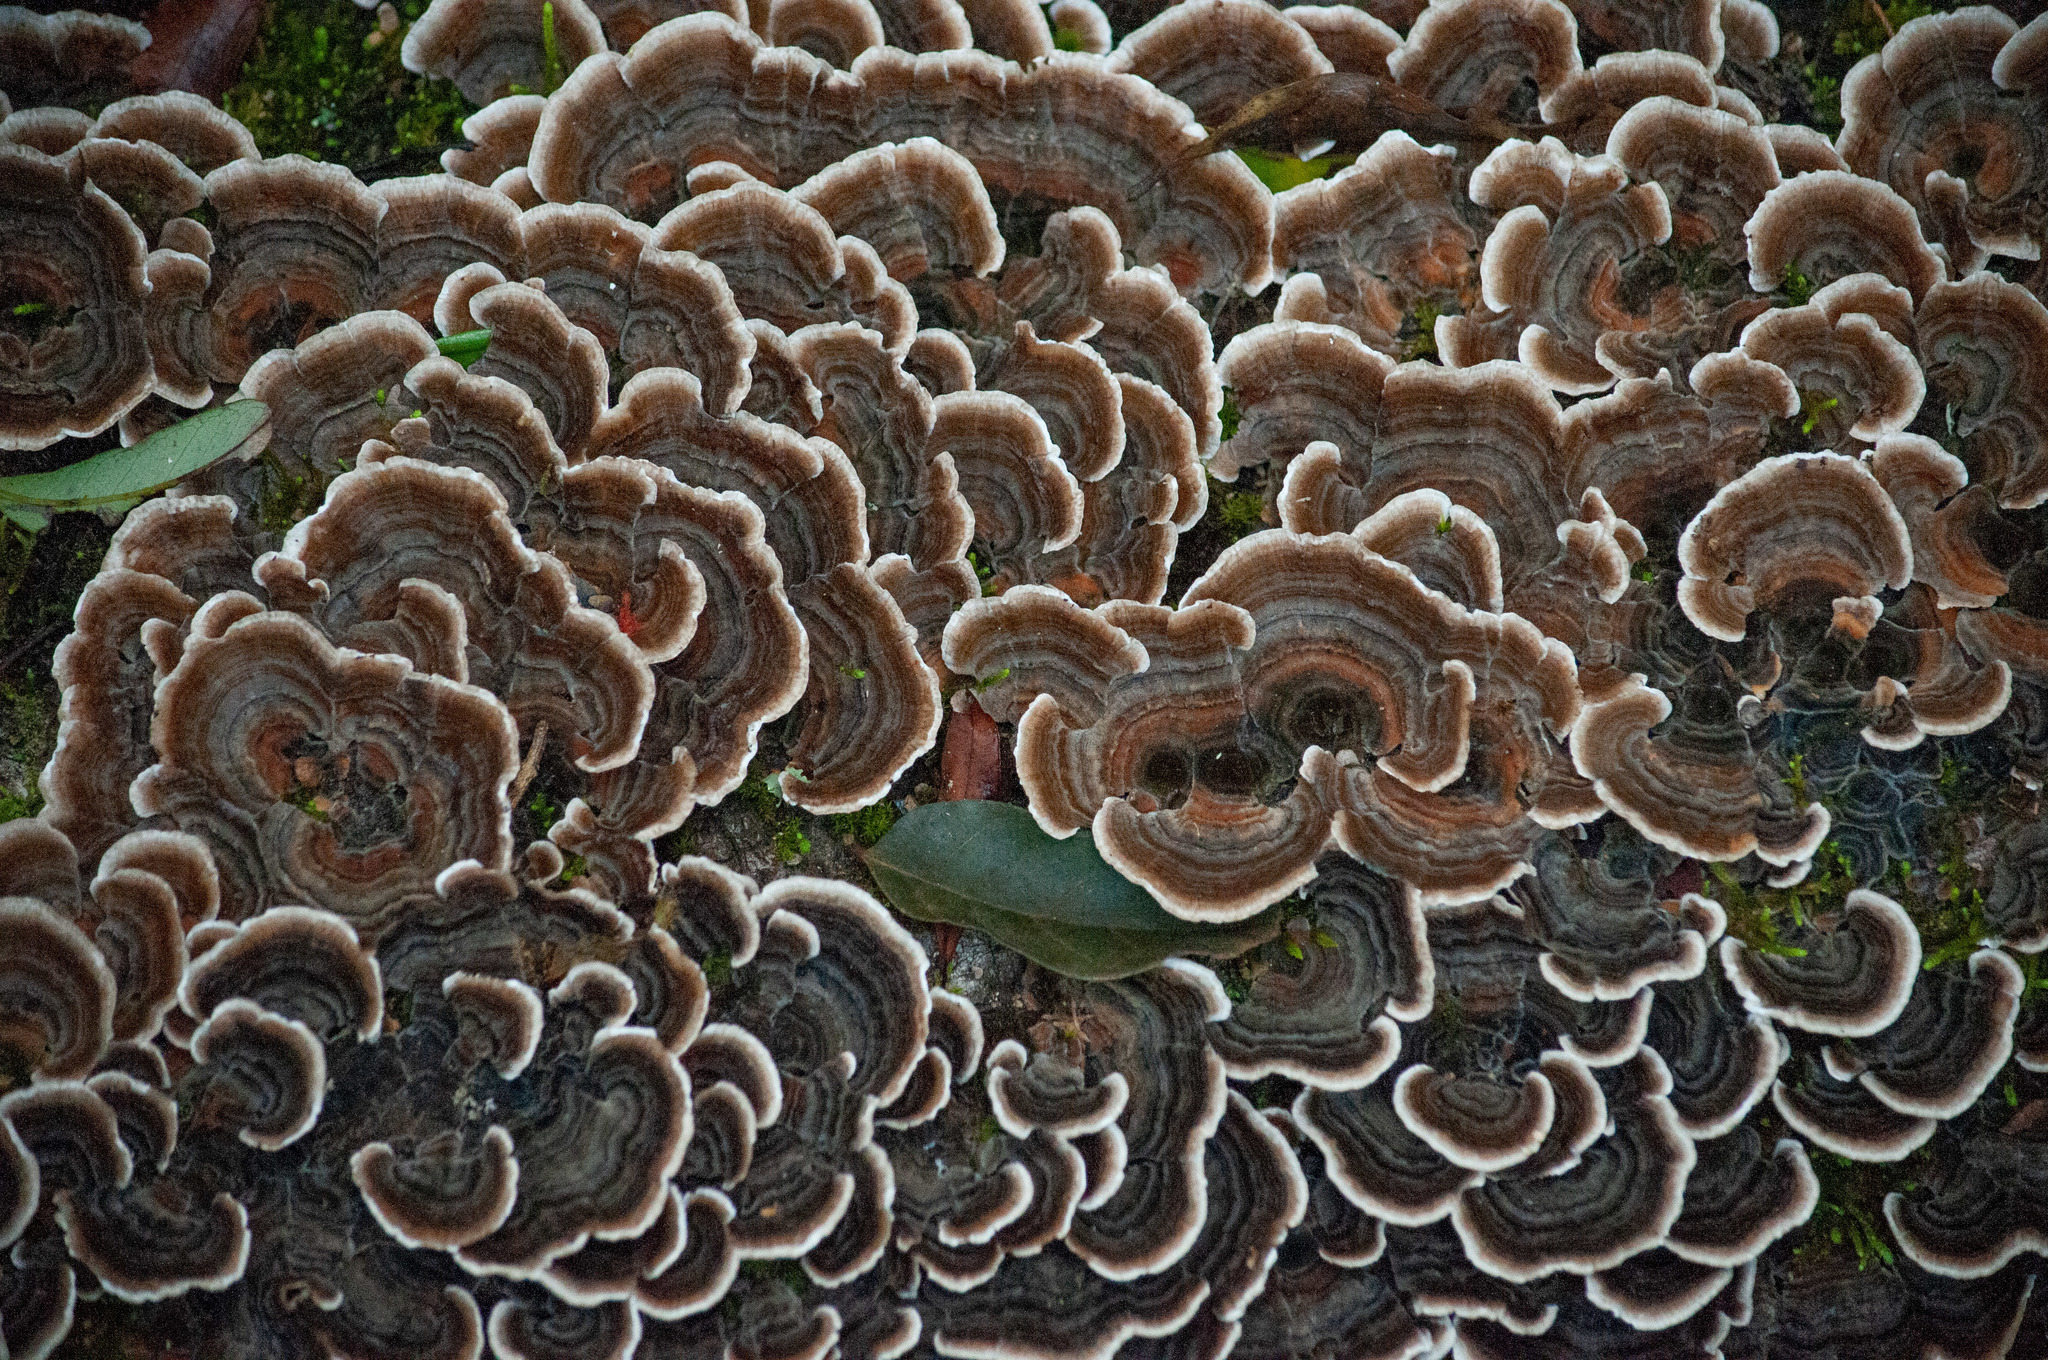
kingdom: Fungi
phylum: Basidiomycota
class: Agaricomycetes
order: Polyporales
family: Polyporaceae
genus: Trametes
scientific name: Trametes versicolor
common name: Turkeytail
